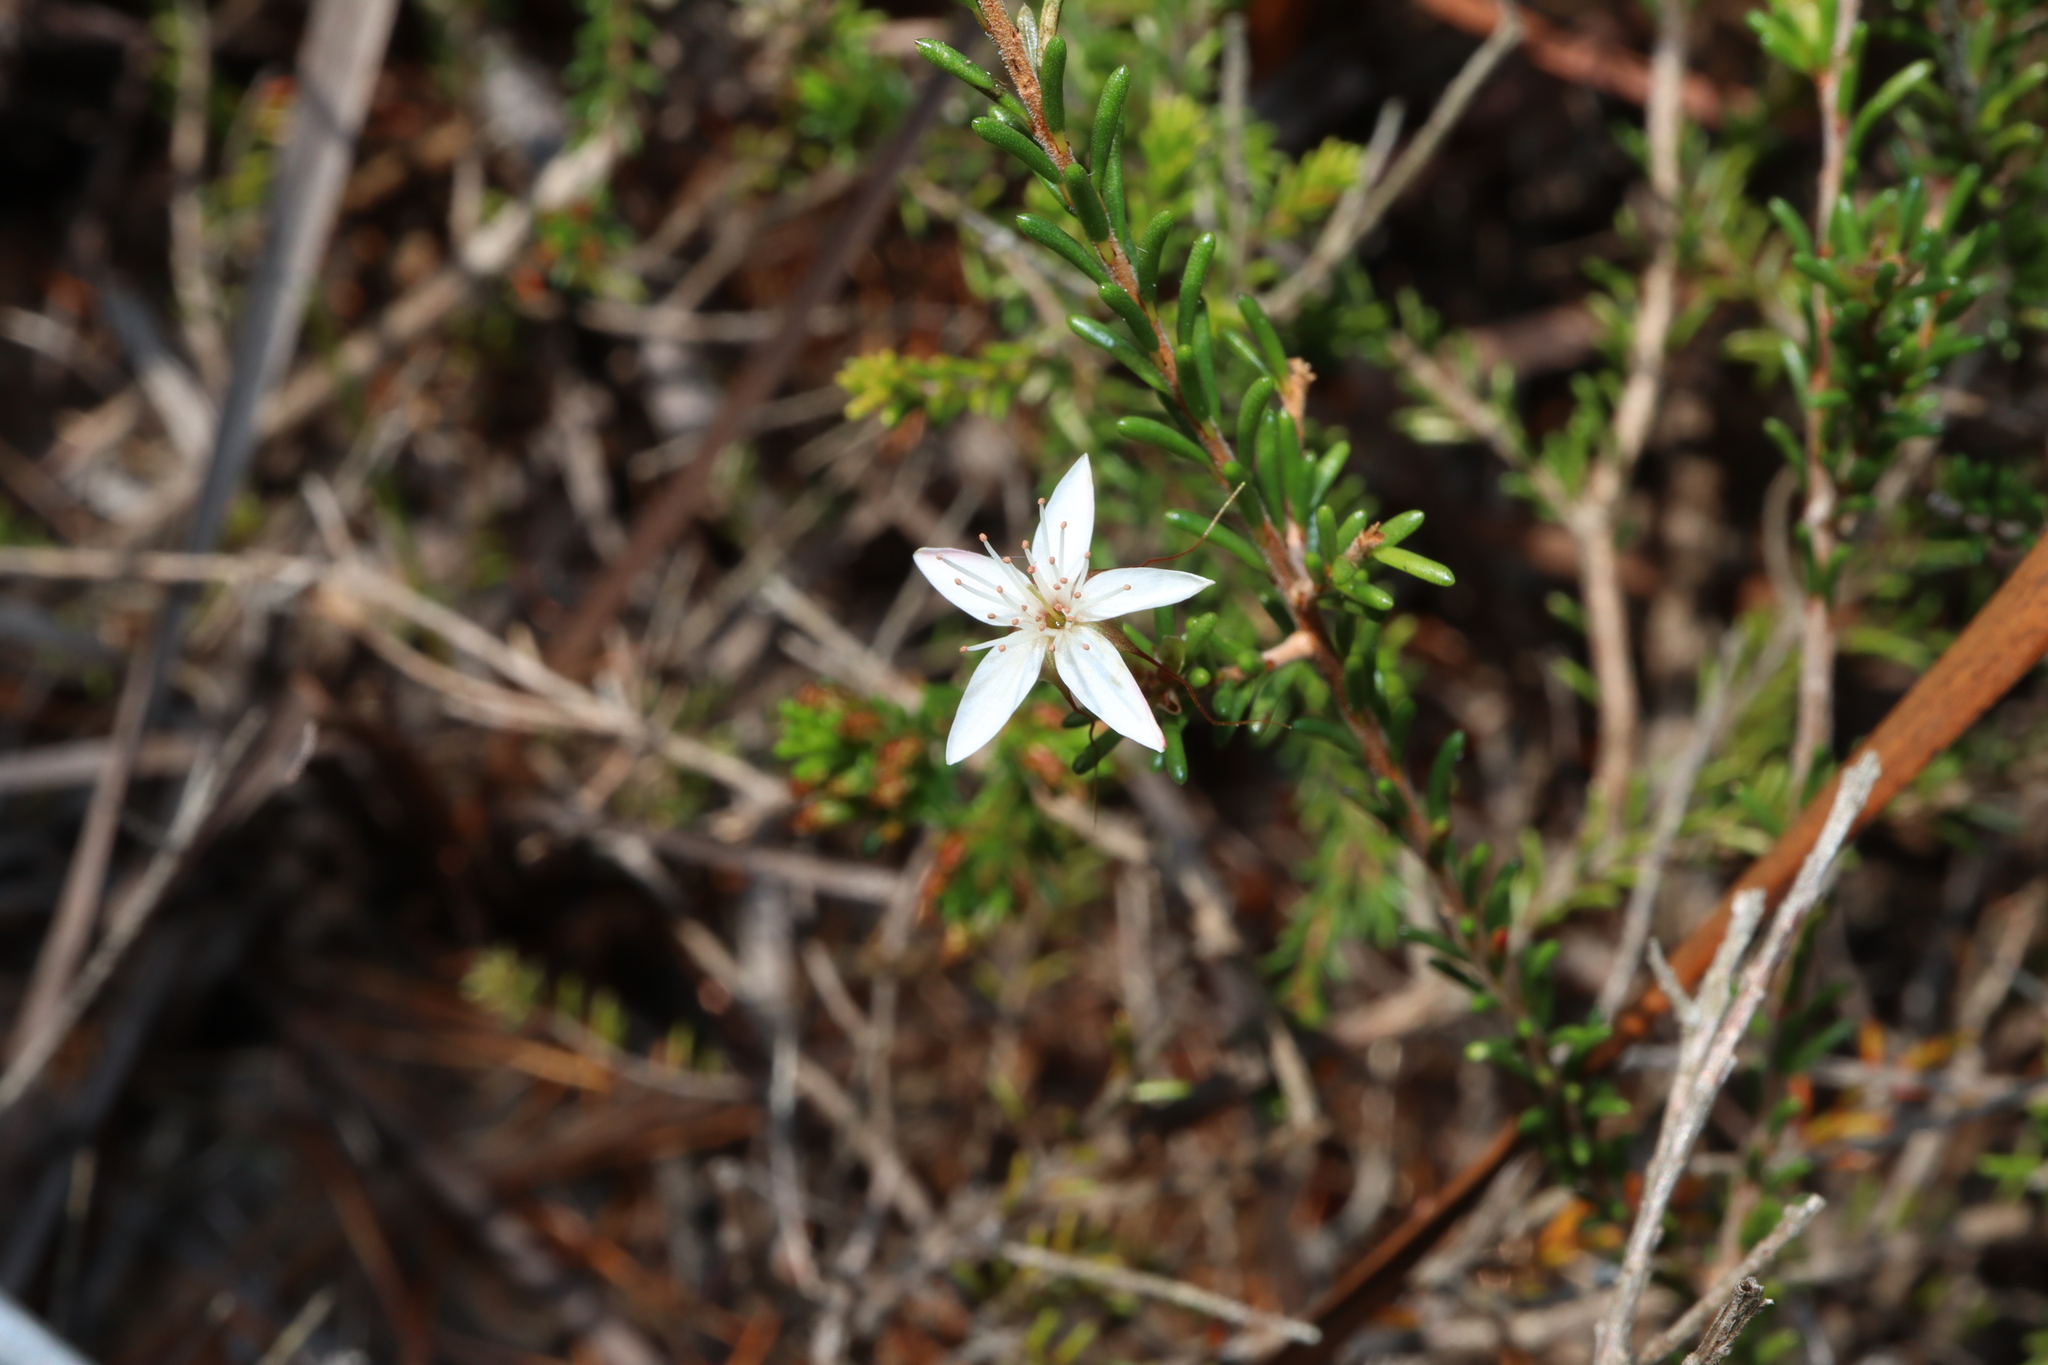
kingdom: Plantae
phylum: Tracheophyta
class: Magnoliopsida
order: Myrtales
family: Myrtaceae
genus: Calytrix
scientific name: Calytrix tetragona
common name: Common fringe myrtle
